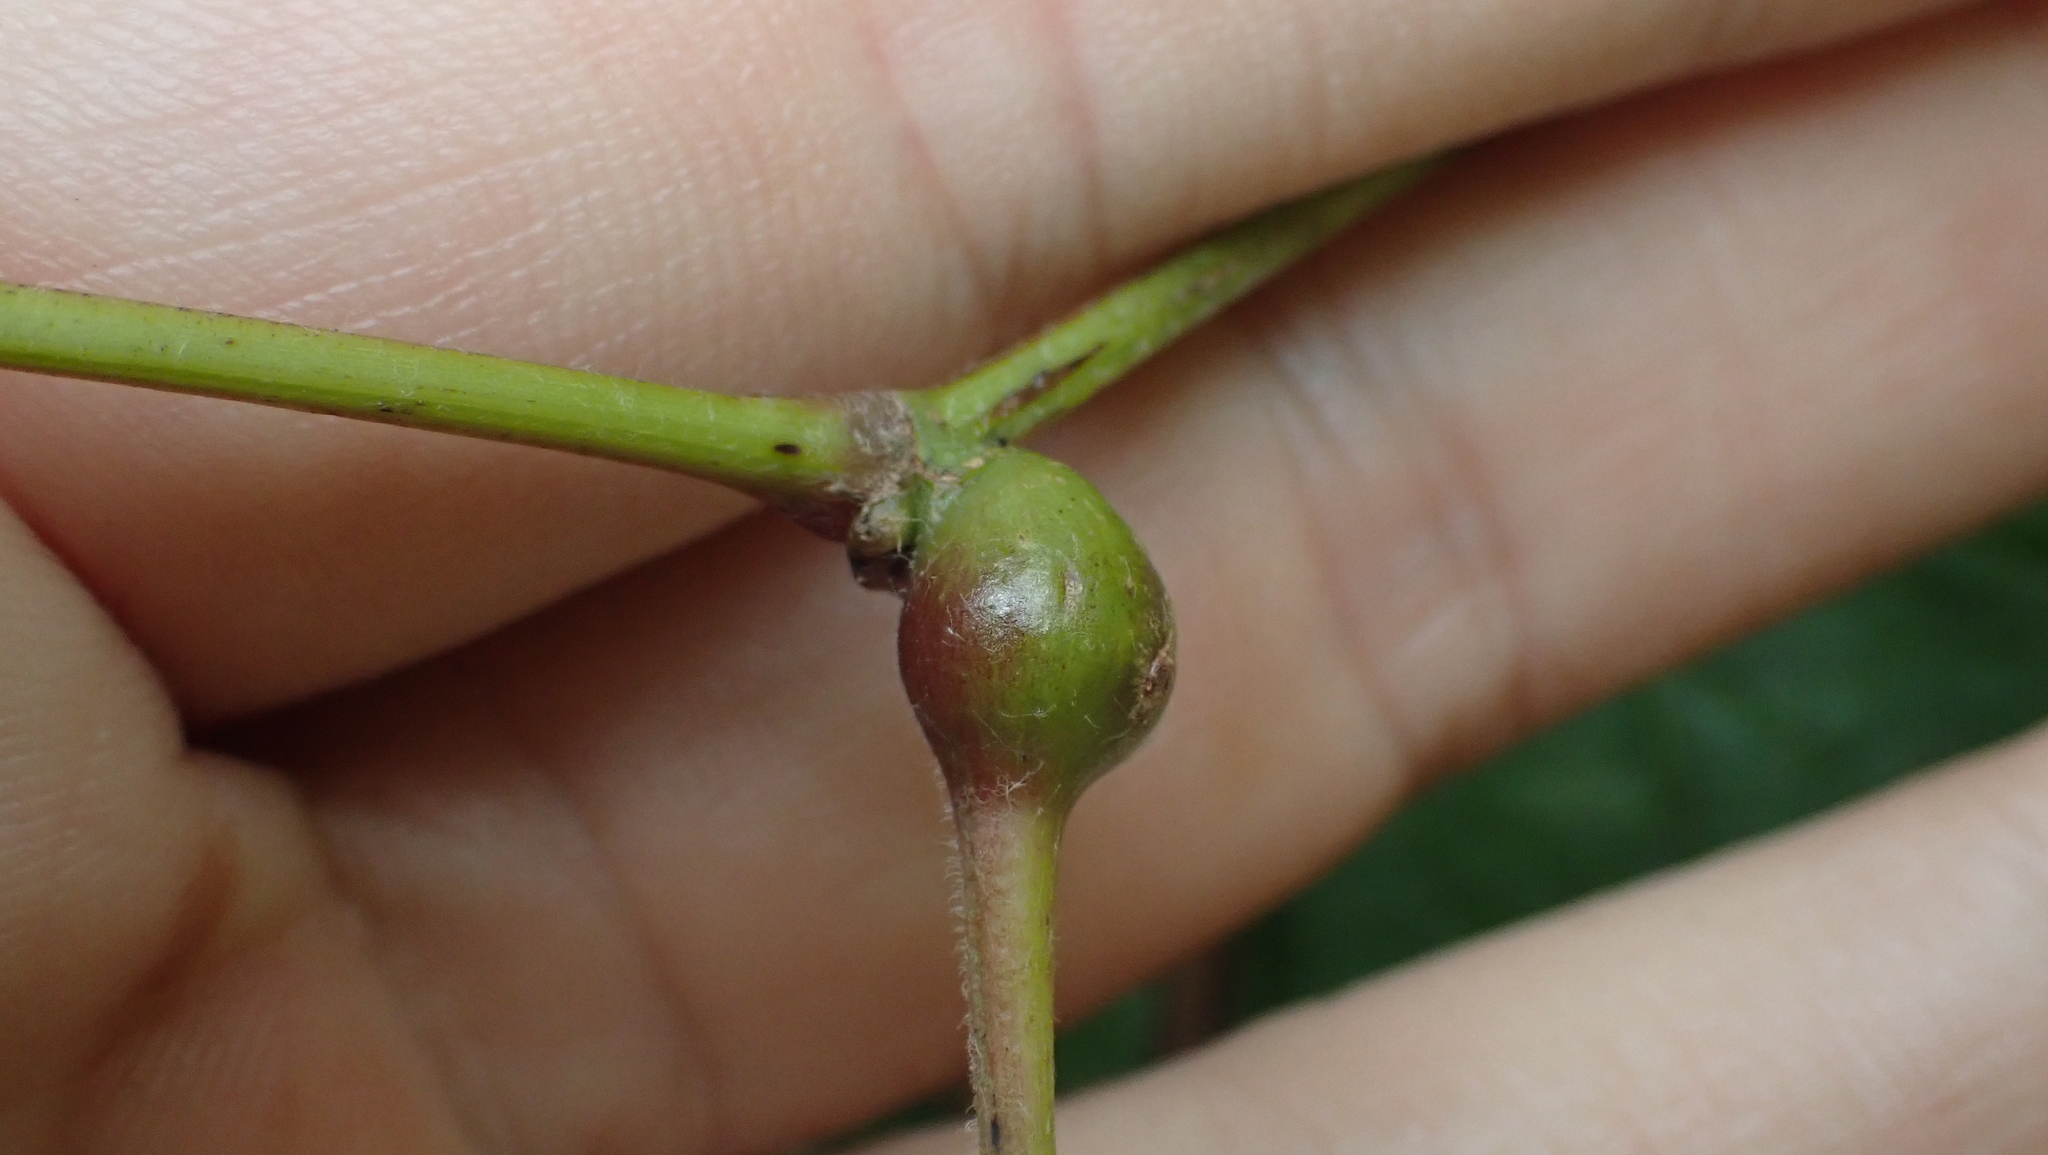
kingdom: Animalia
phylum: Arthropoda
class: Insecta
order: Diptera
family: Cecidomyiidae
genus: Neolasioptera
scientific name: Neolasioptera vitinea
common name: Grape leaf petiole gall
